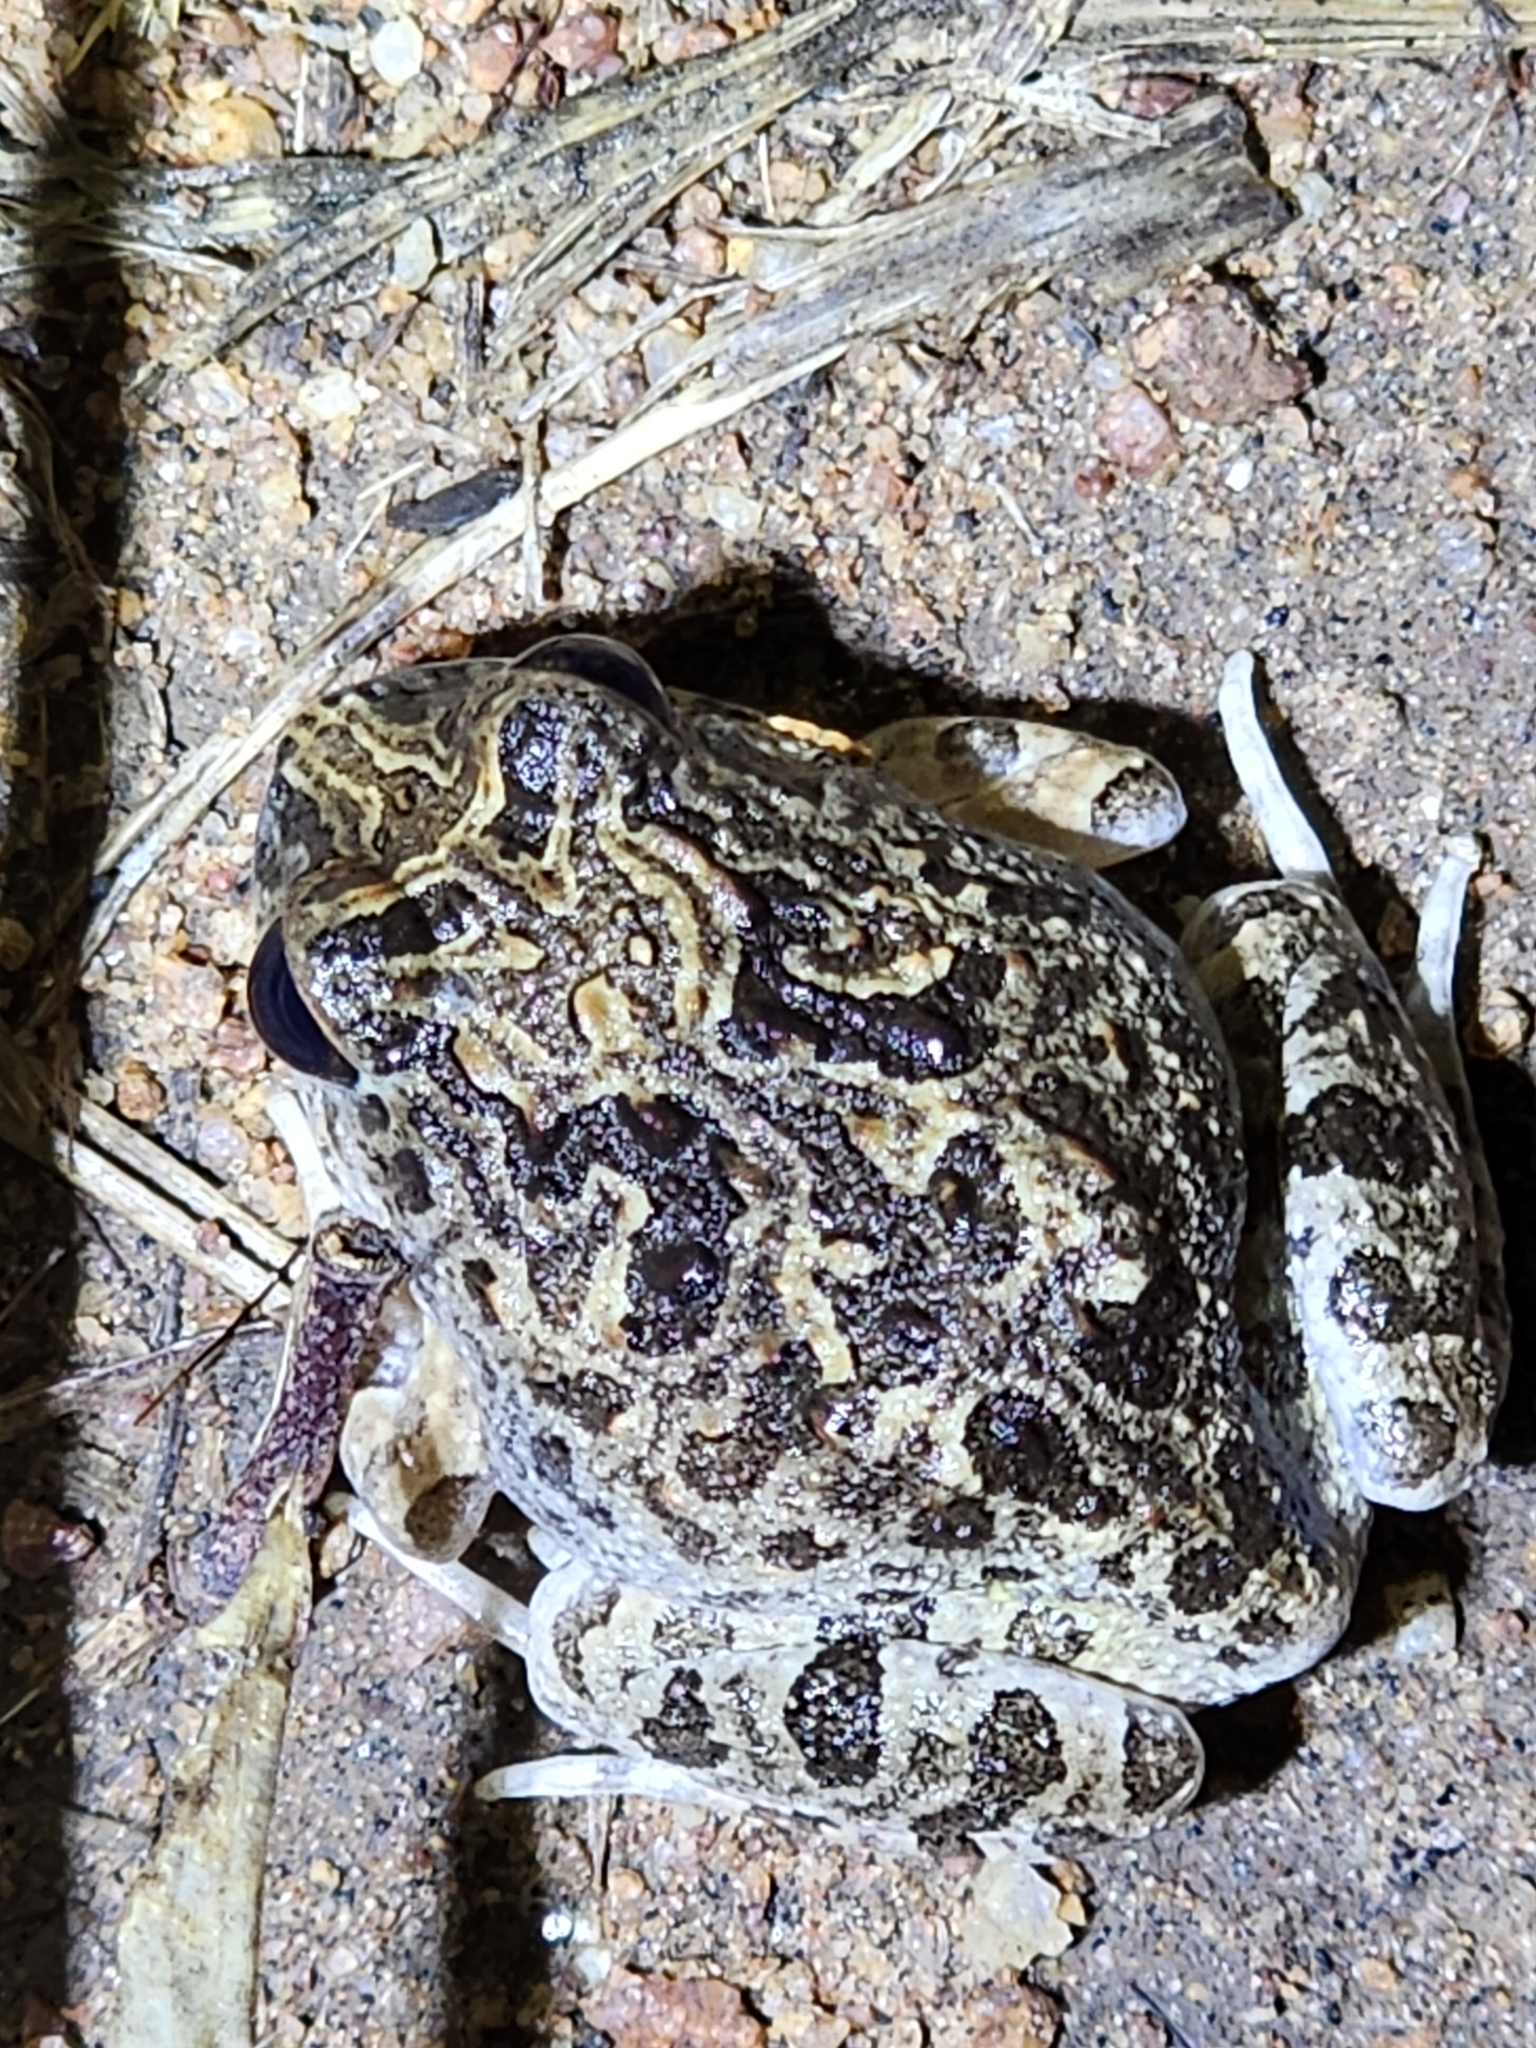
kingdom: Animalia
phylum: Chordata
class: Amphibia
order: Anura
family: Limnodynastidae
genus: Platyplectrum
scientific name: Platyplectrum ornatum
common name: Ornate burrowing frog
